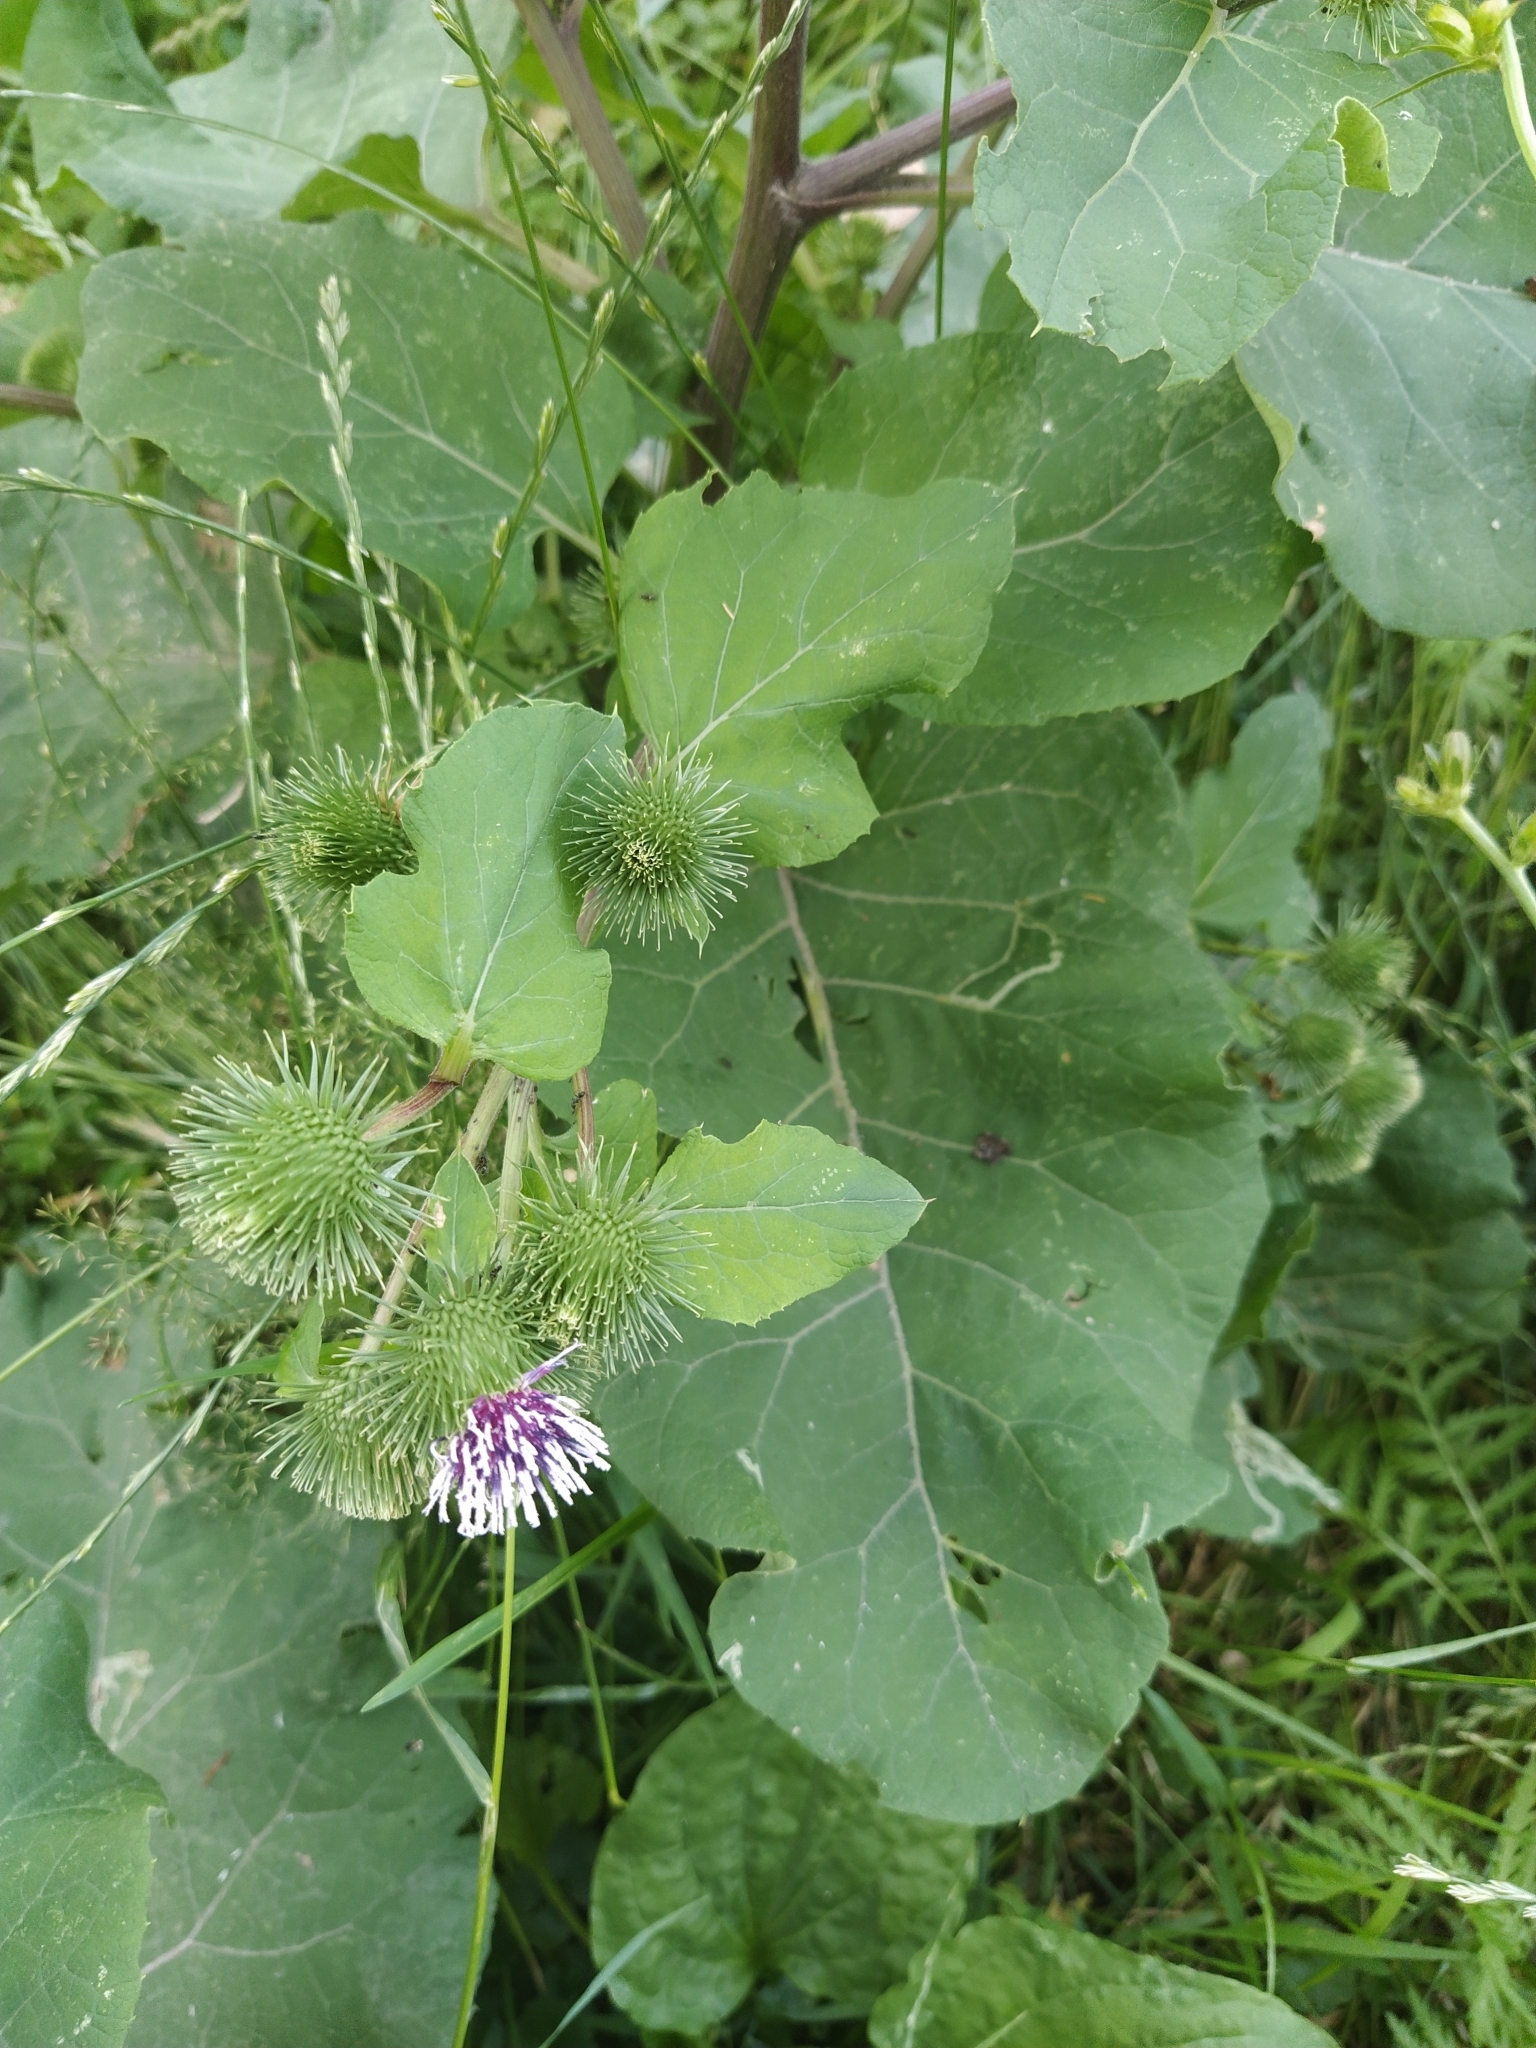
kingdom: Plantae
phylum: Tracheophyta
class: Magnoliopsida
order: Asterales
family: Asteraceae
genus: Arctium
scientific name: Arctium lappa
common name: Greater burdock
